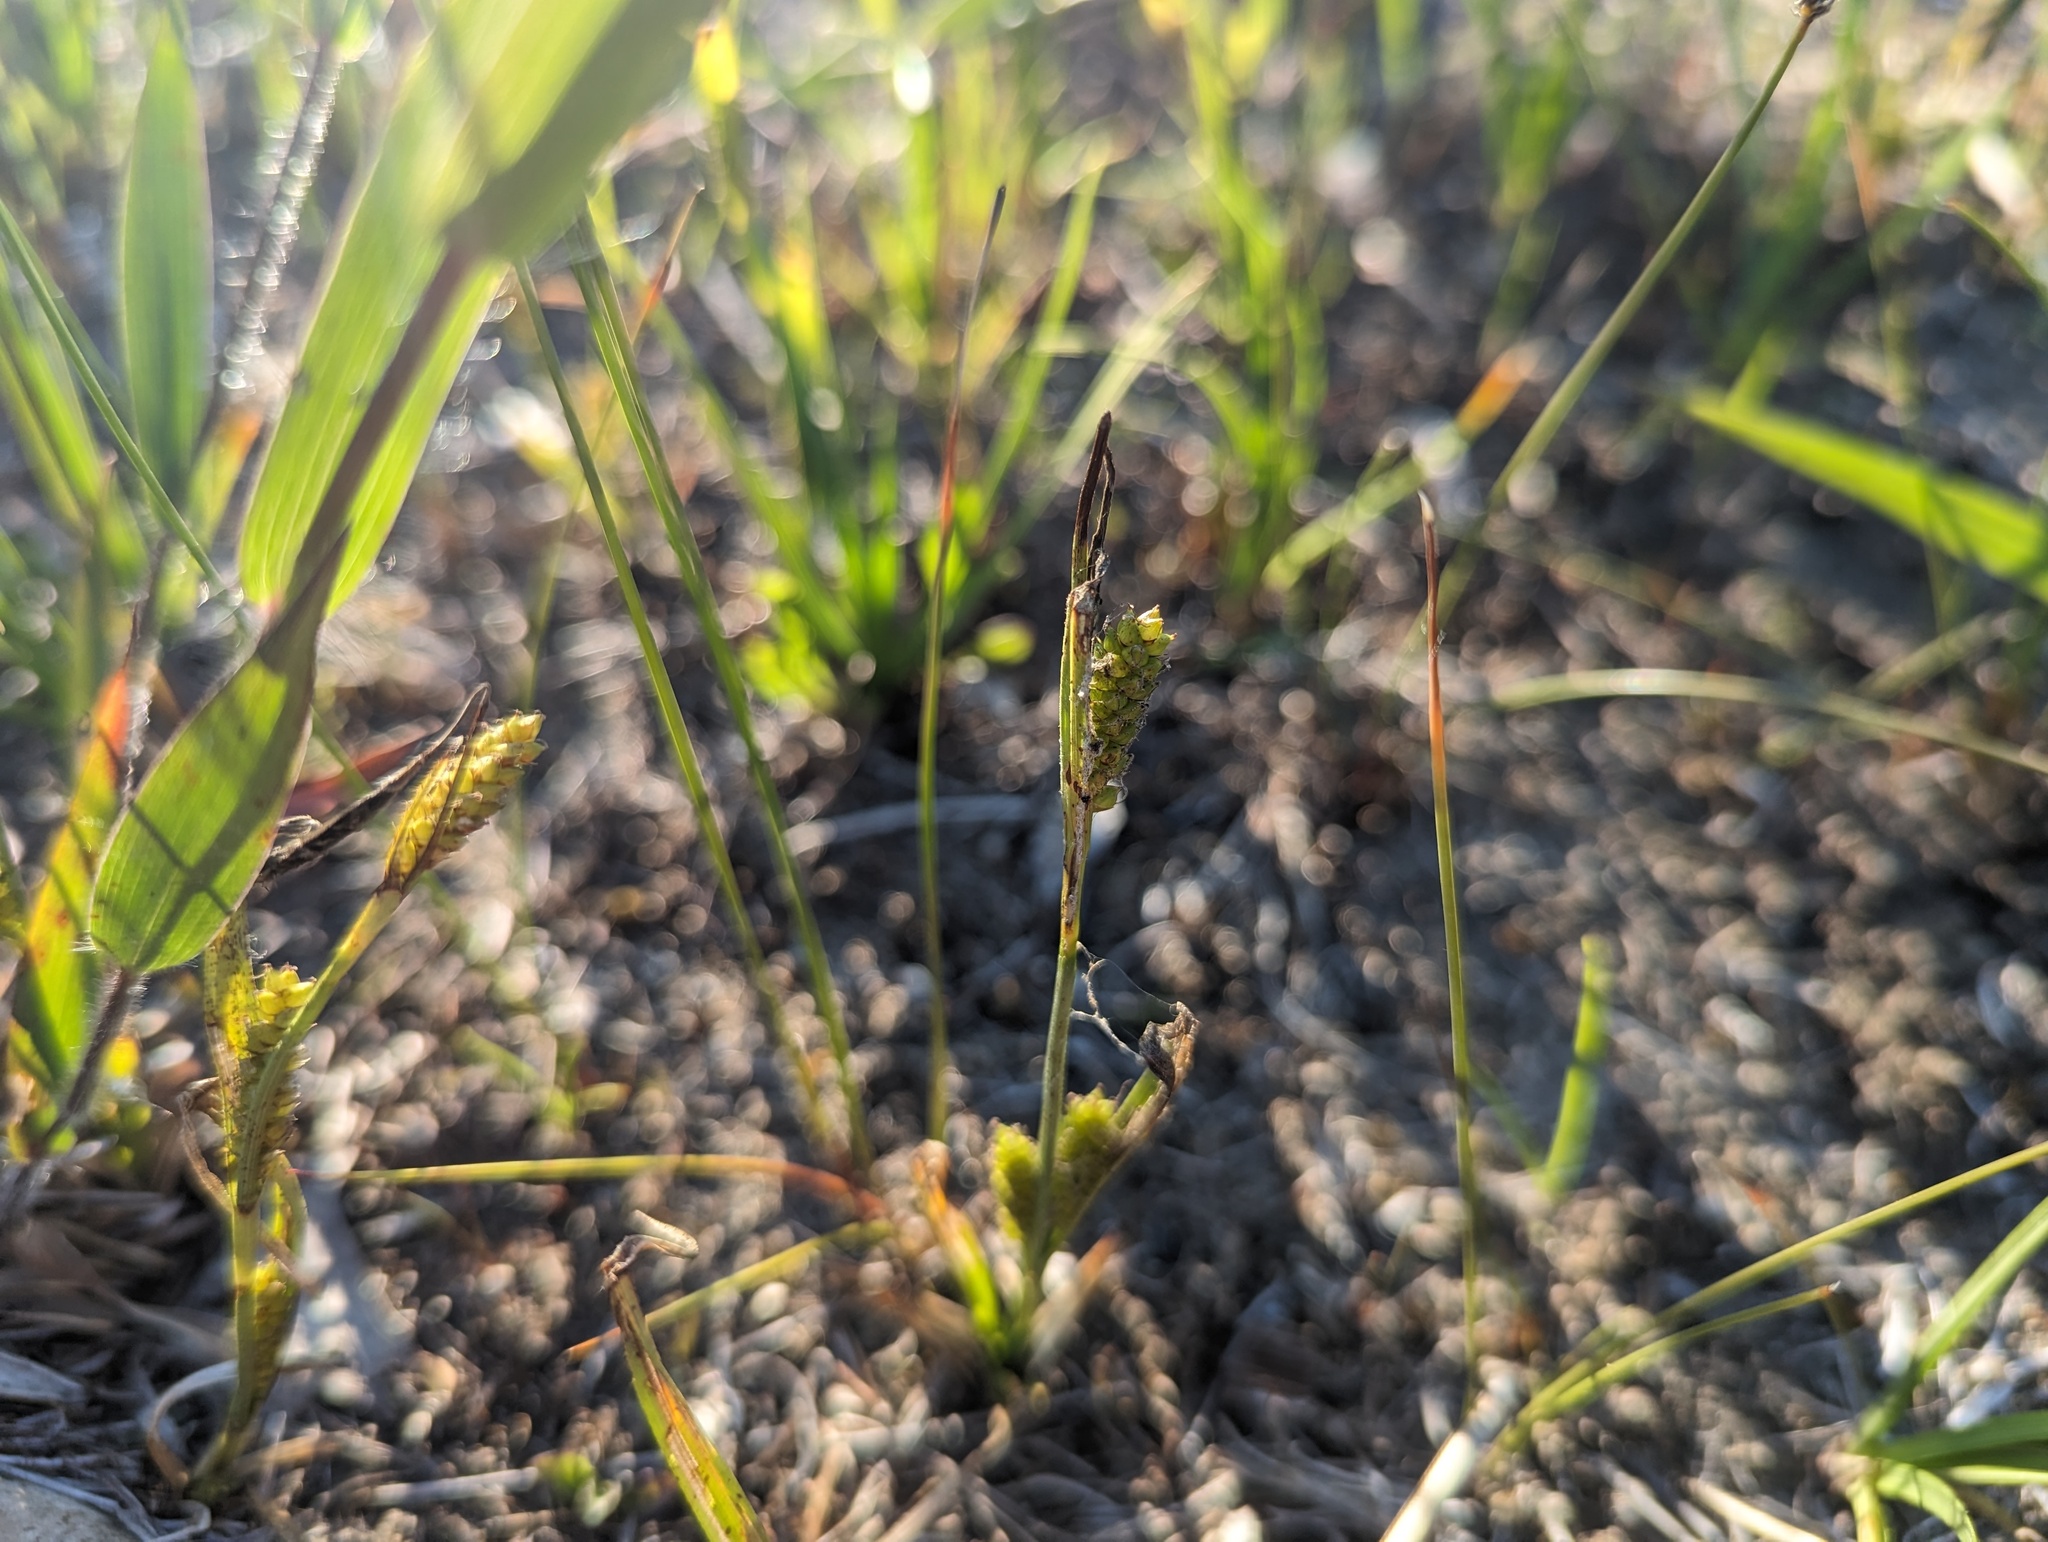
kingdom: Plantae
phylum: Tracheophyta
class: Liliopsida
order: Poales
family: Cyperaceae
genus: Carex
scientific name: Carex crawei
